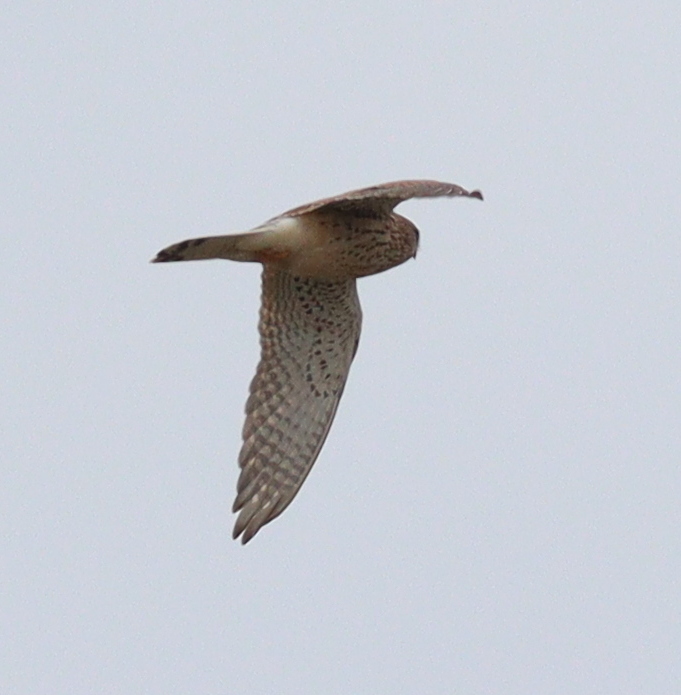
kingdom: Animalia
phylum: Chordata
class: Aves
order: Falconiformes
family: Falconidae
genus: Falco
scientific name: Falco tinnunculus
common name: Common kestrel
